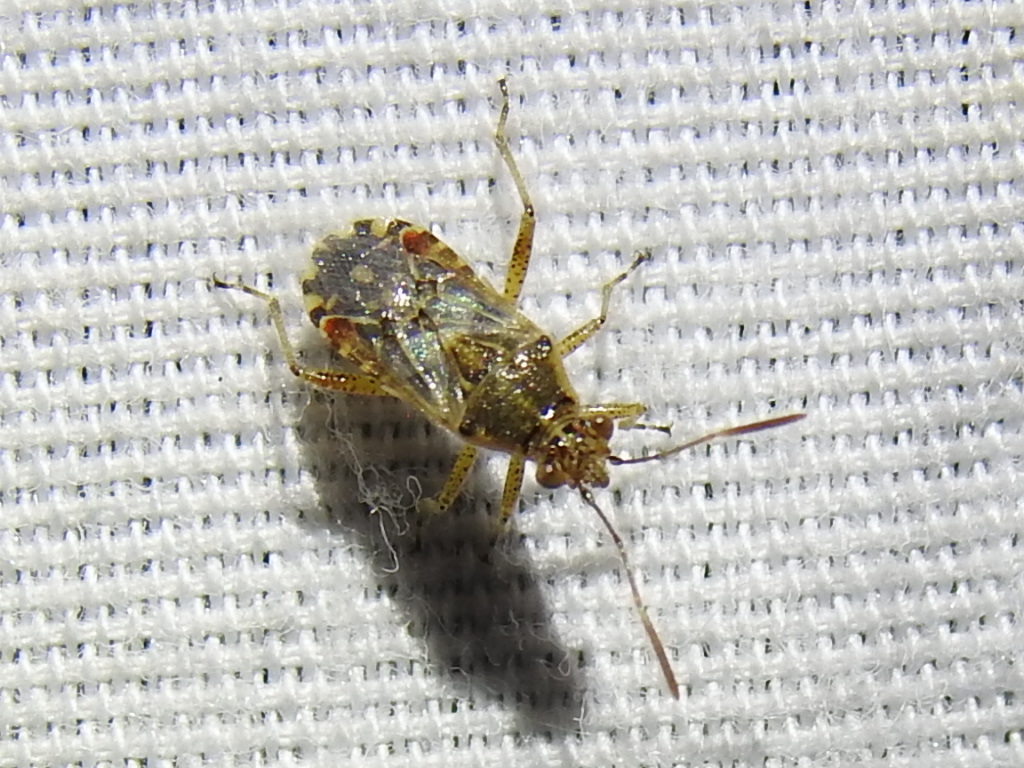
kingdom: Animalia
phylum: Arthropoda
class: Insecta
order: Hemiptera
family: Rhopalidae
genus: Liorhyssus
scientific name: Liorhyssus hyalinus
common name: Scentless plant bug
